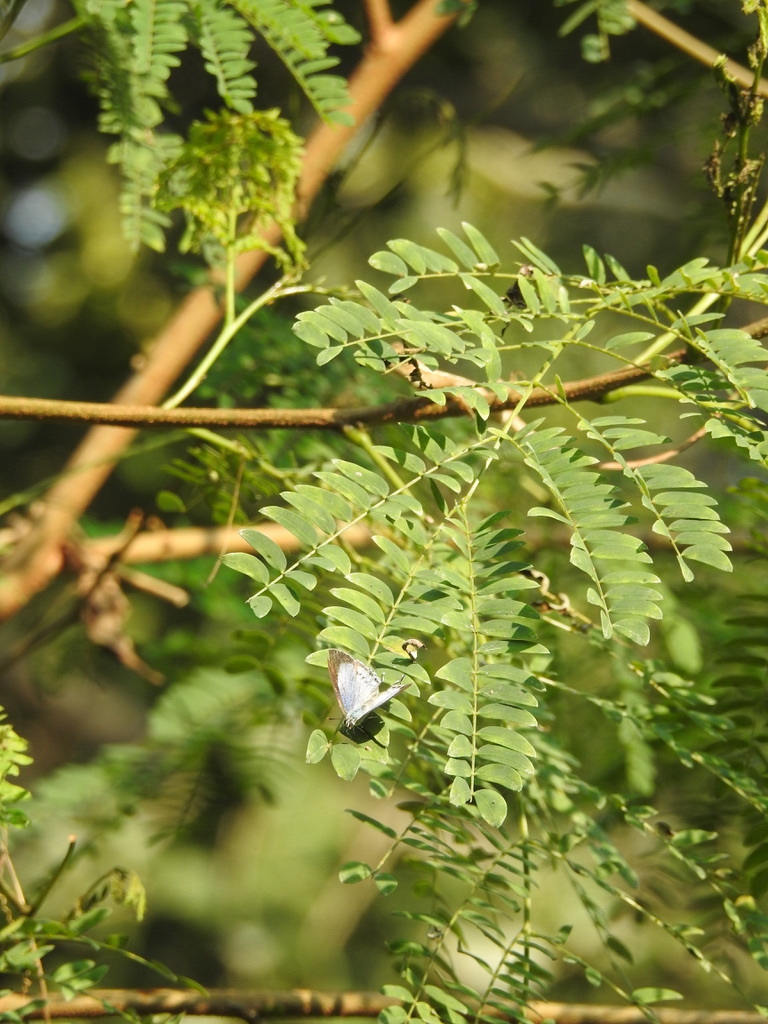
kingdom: Plantae
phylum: Tracheophyta
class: Magnoliopsida
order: Asterales
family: Asteraceae
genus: Ageratum
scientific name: Ageratum conyzoides
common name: Tropical whiteweed
